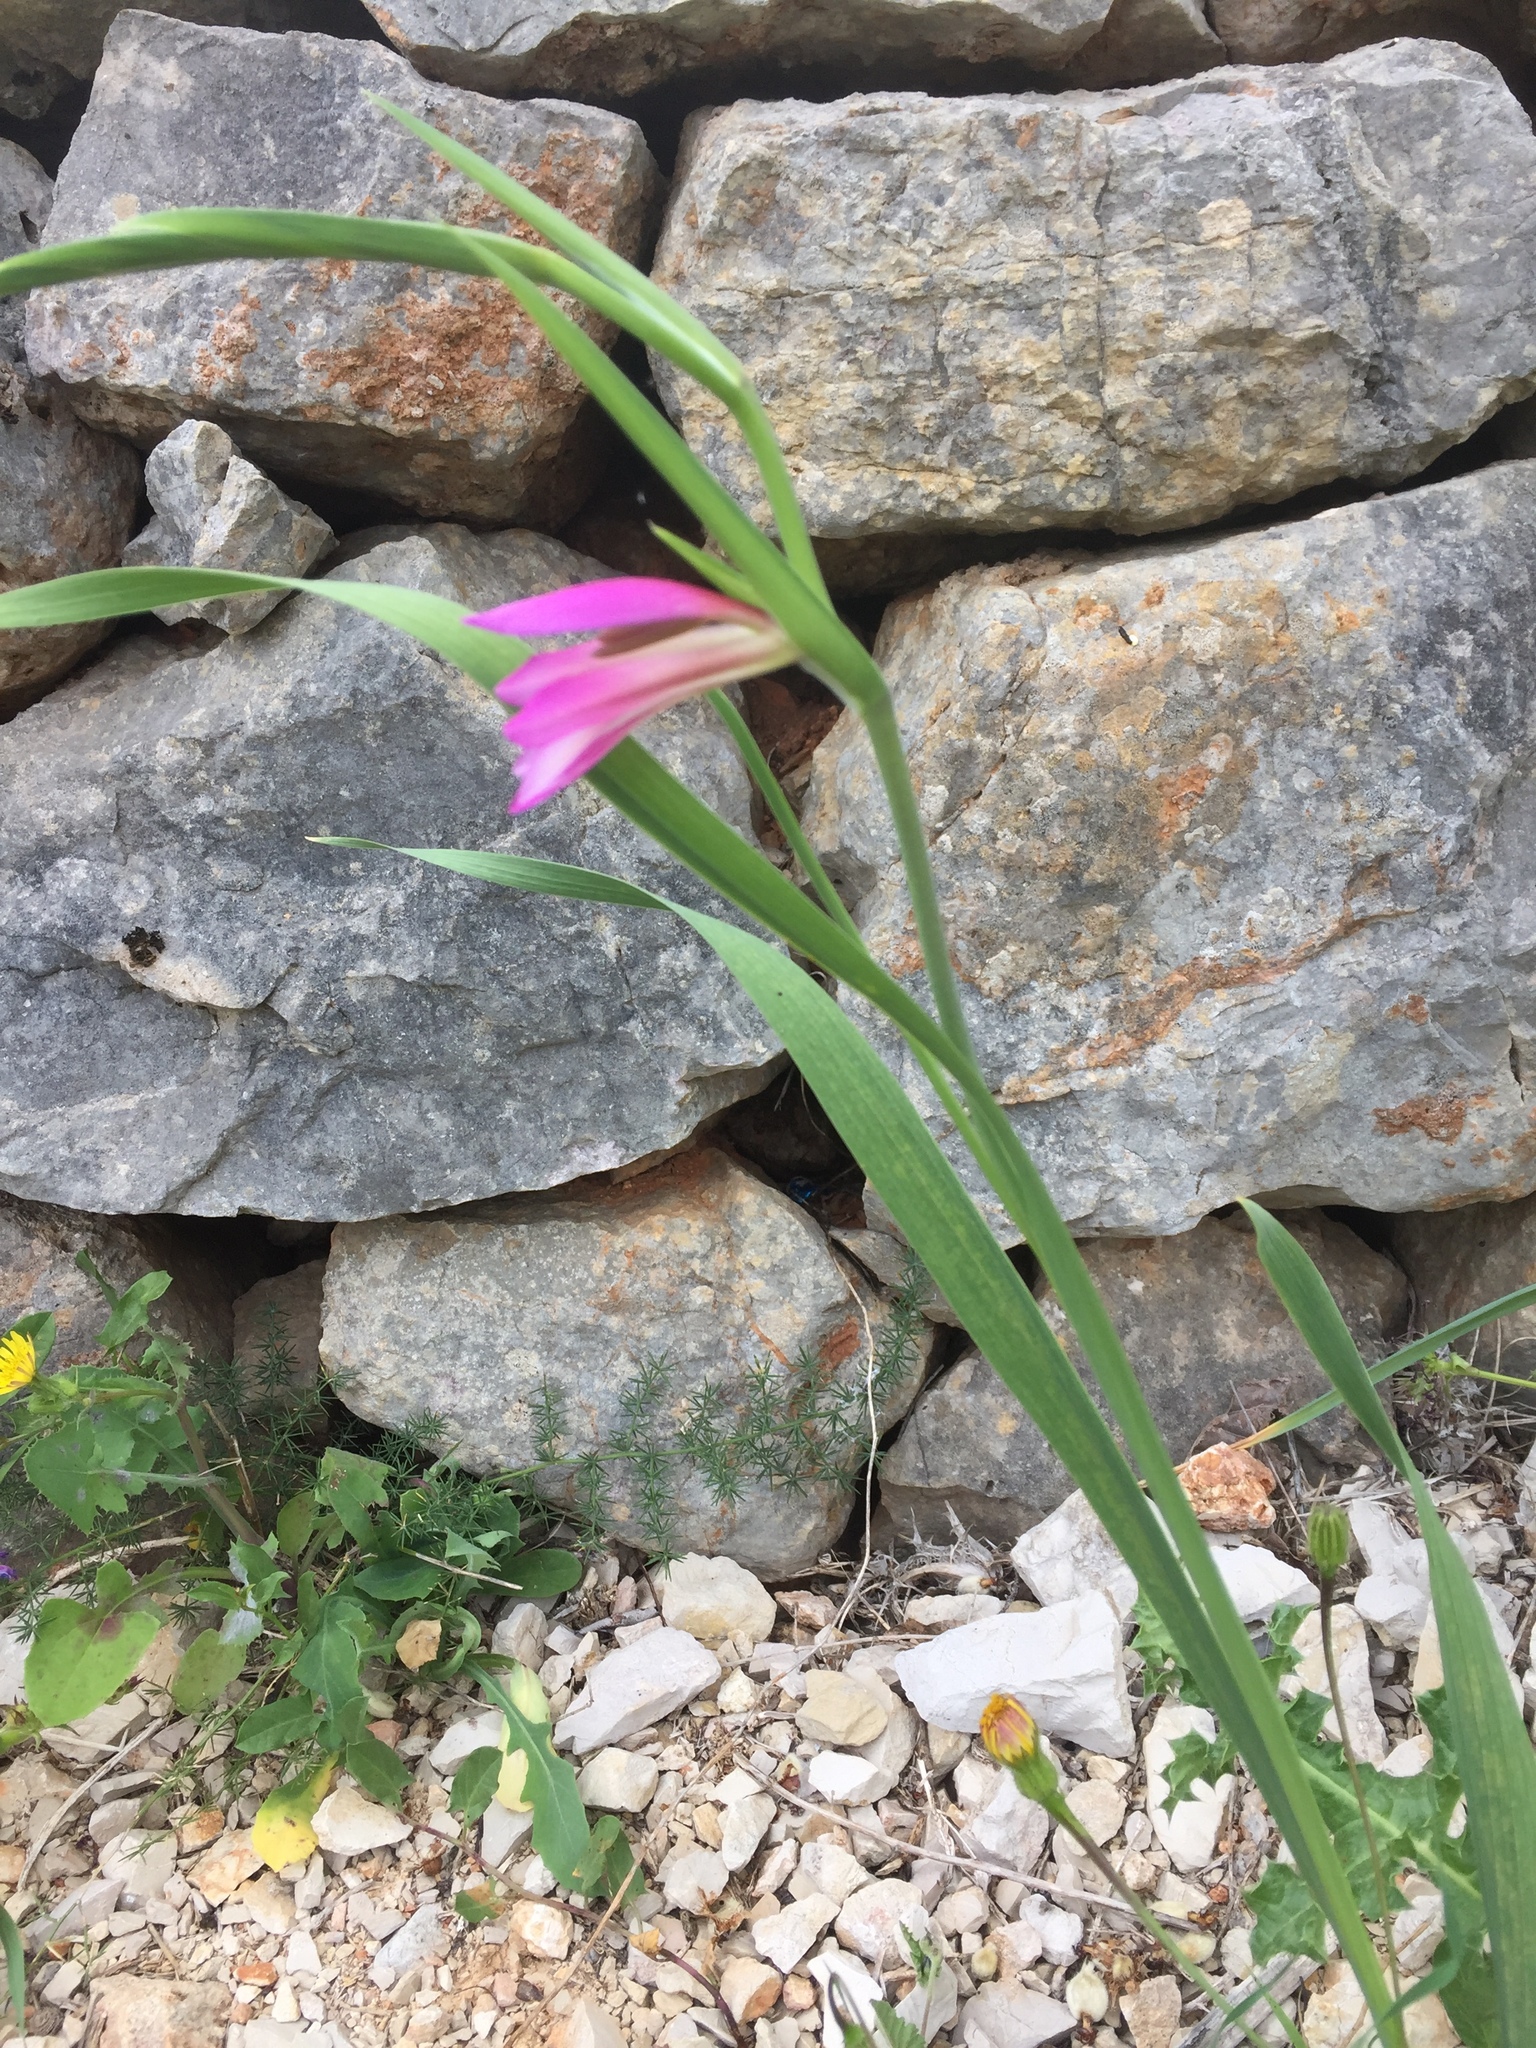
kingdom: Plantae
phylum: Tracheophyta
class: Liliopsida
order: Asparagales
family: Iridaceae
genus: Gladiolus
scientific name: Gladiolus italicus
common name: Field gladiolus
